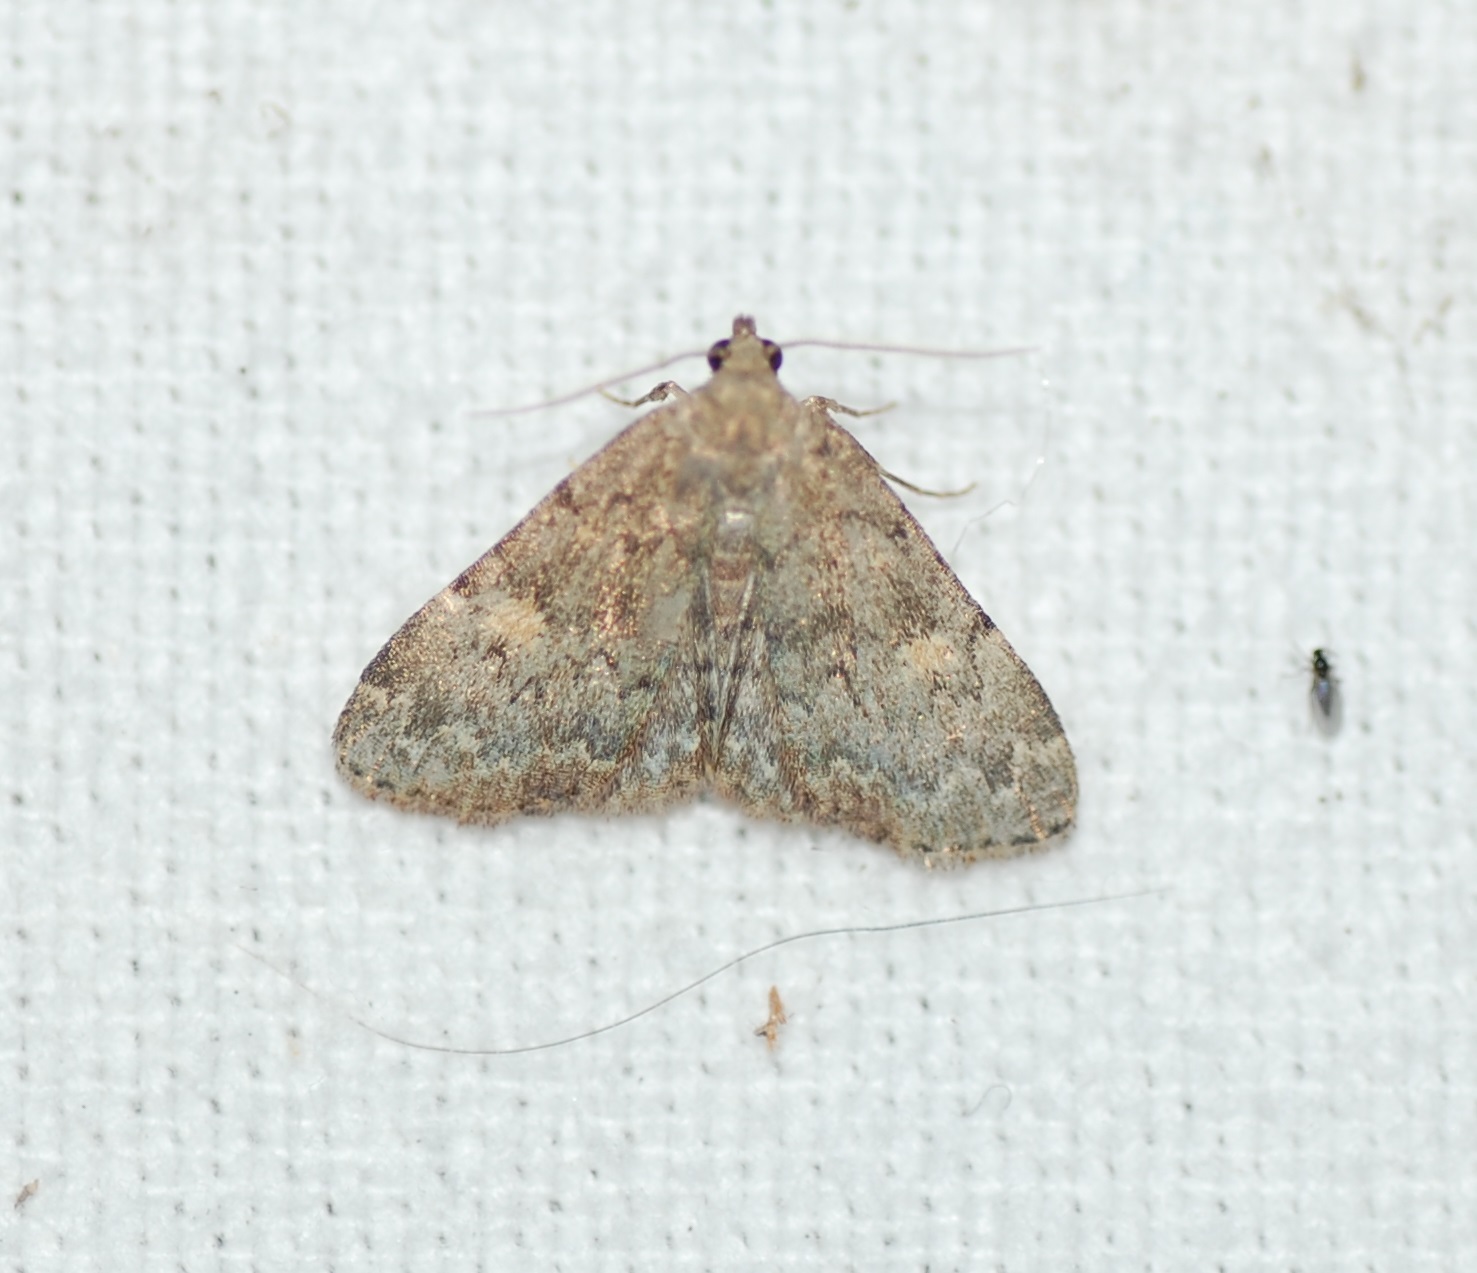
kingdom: Animalia
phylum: Arthropoda
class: Insecta
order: Lepidoptera
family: Erebidae
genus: Idia
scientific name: Idia aemula
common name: Common idia moth
